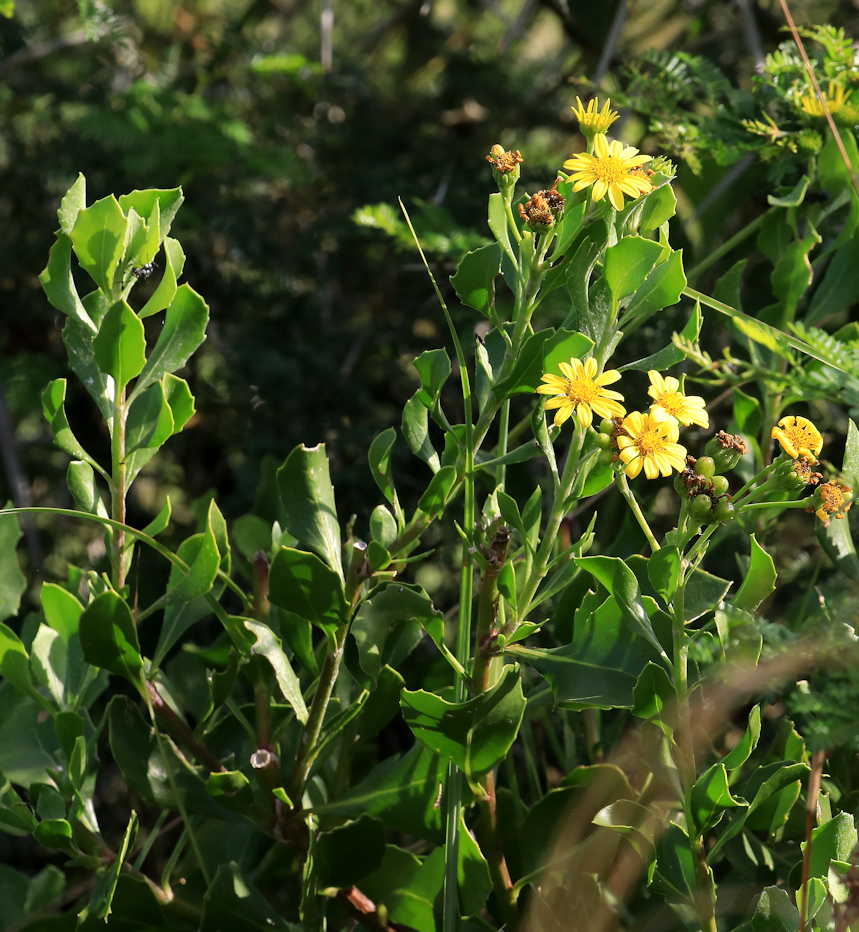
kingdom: Plantae
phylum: Tracheophyta
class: Magnoliopsida
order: Asterales
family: Asteraceae
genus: Osteospermum
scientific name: Osteospermum moniliferum
